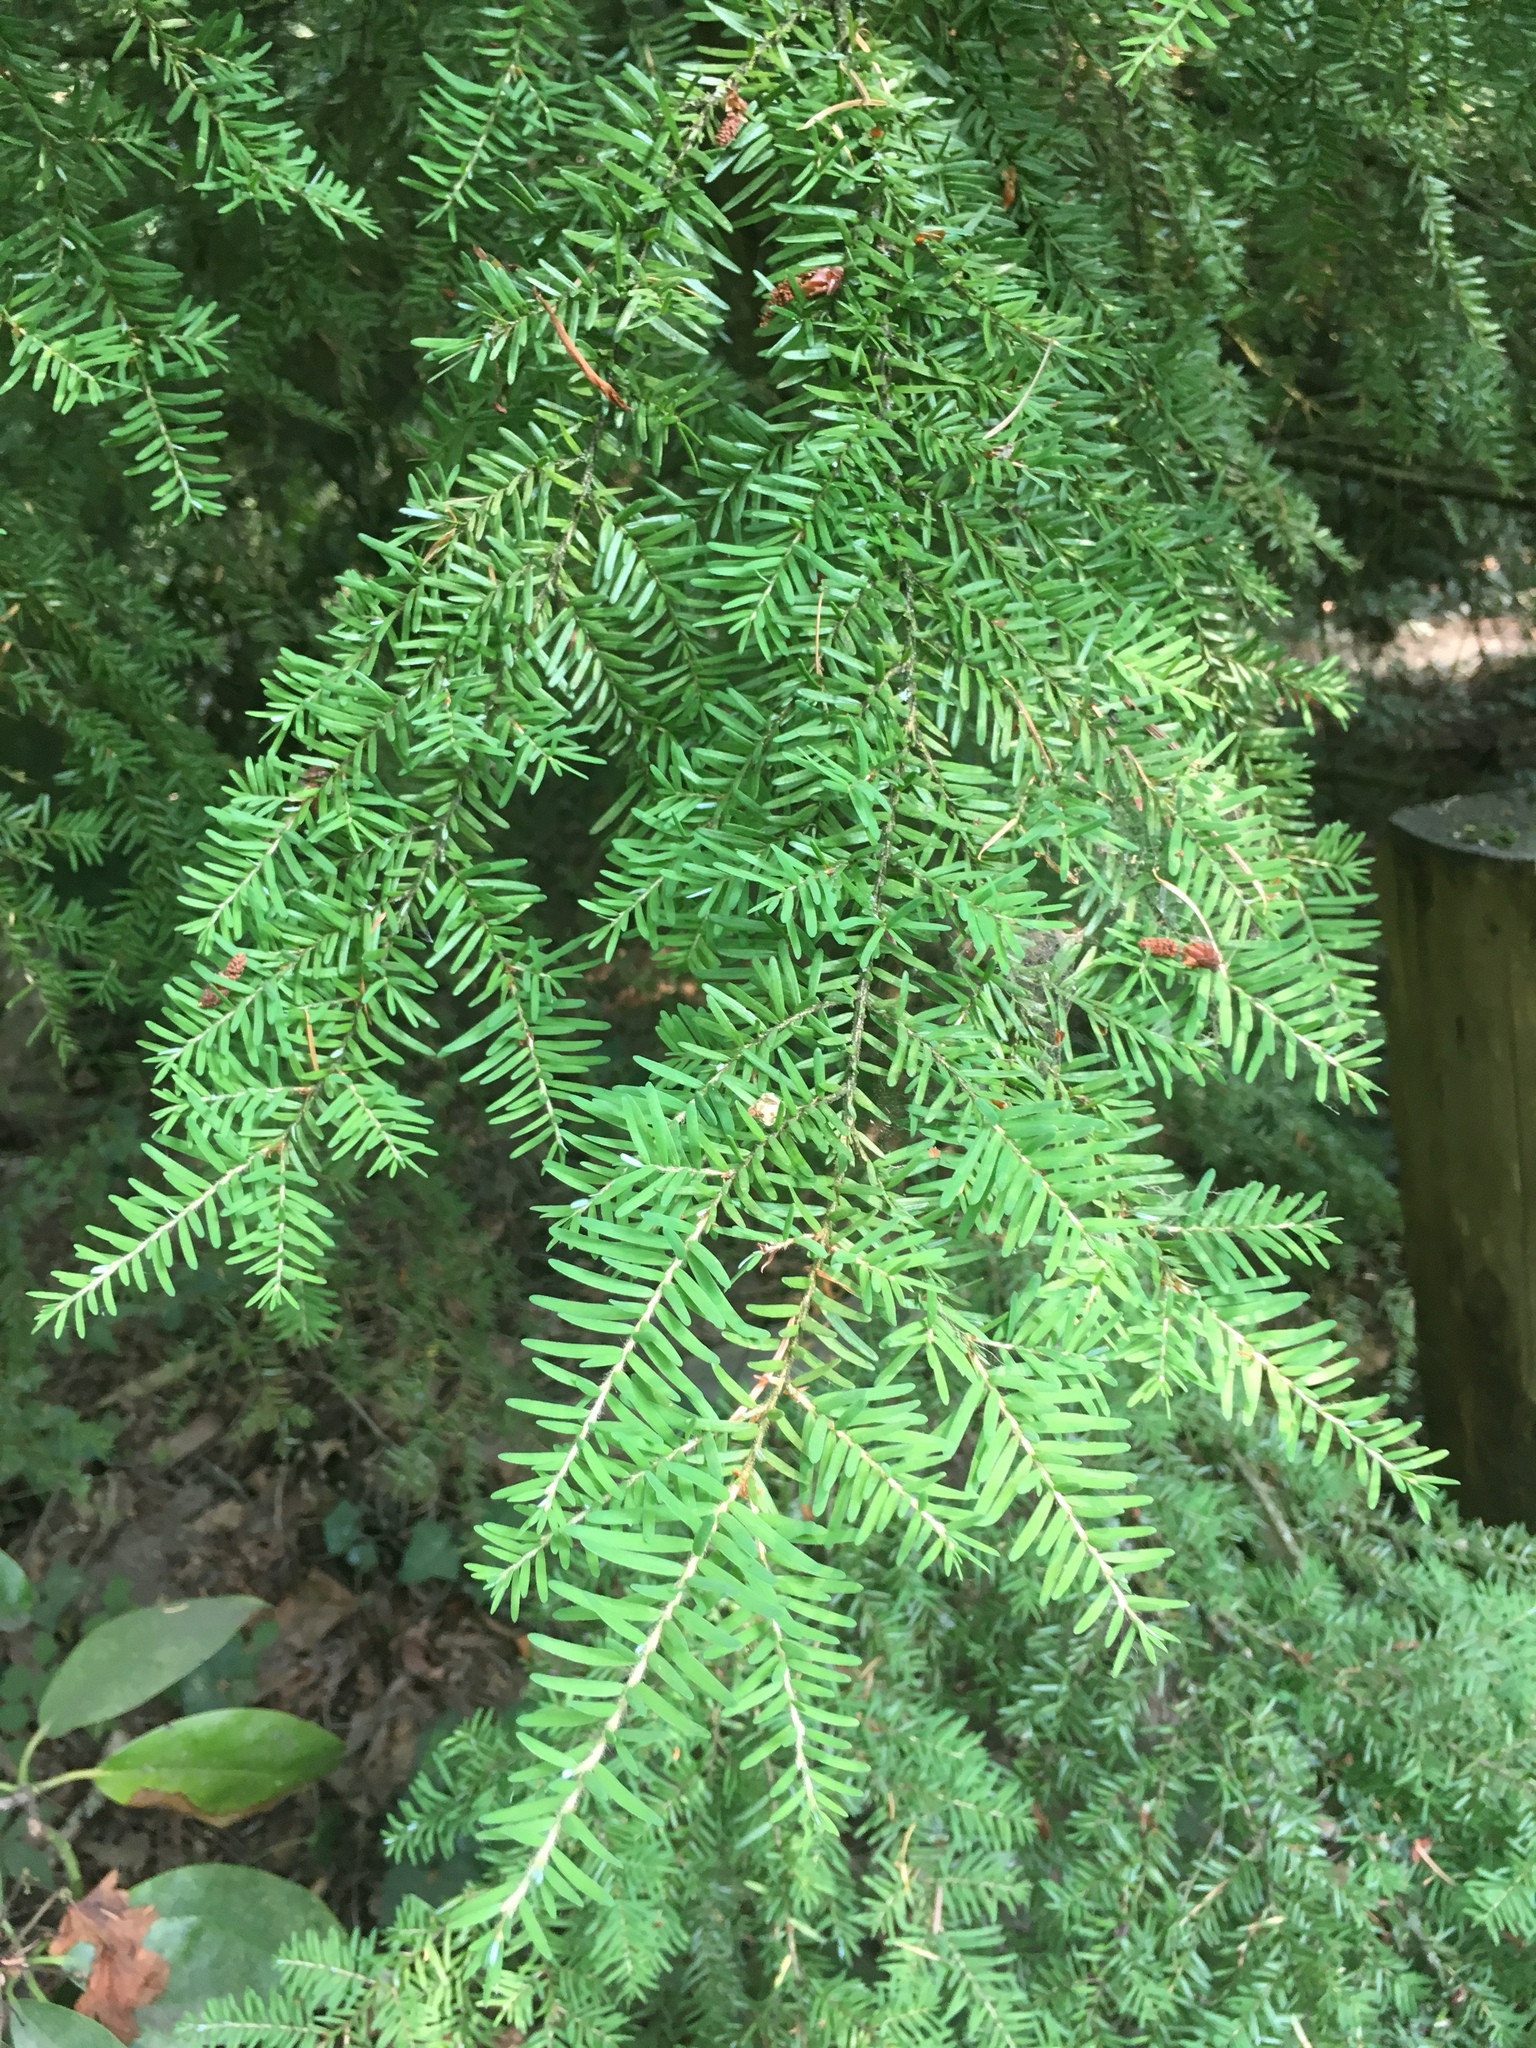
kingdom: Plantae
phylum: Tracheophyta
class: Pinopsida
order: Pinales
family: Pinaceae
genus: Tsuga
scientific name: Tsuga heterophylla
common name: Western hemlock
